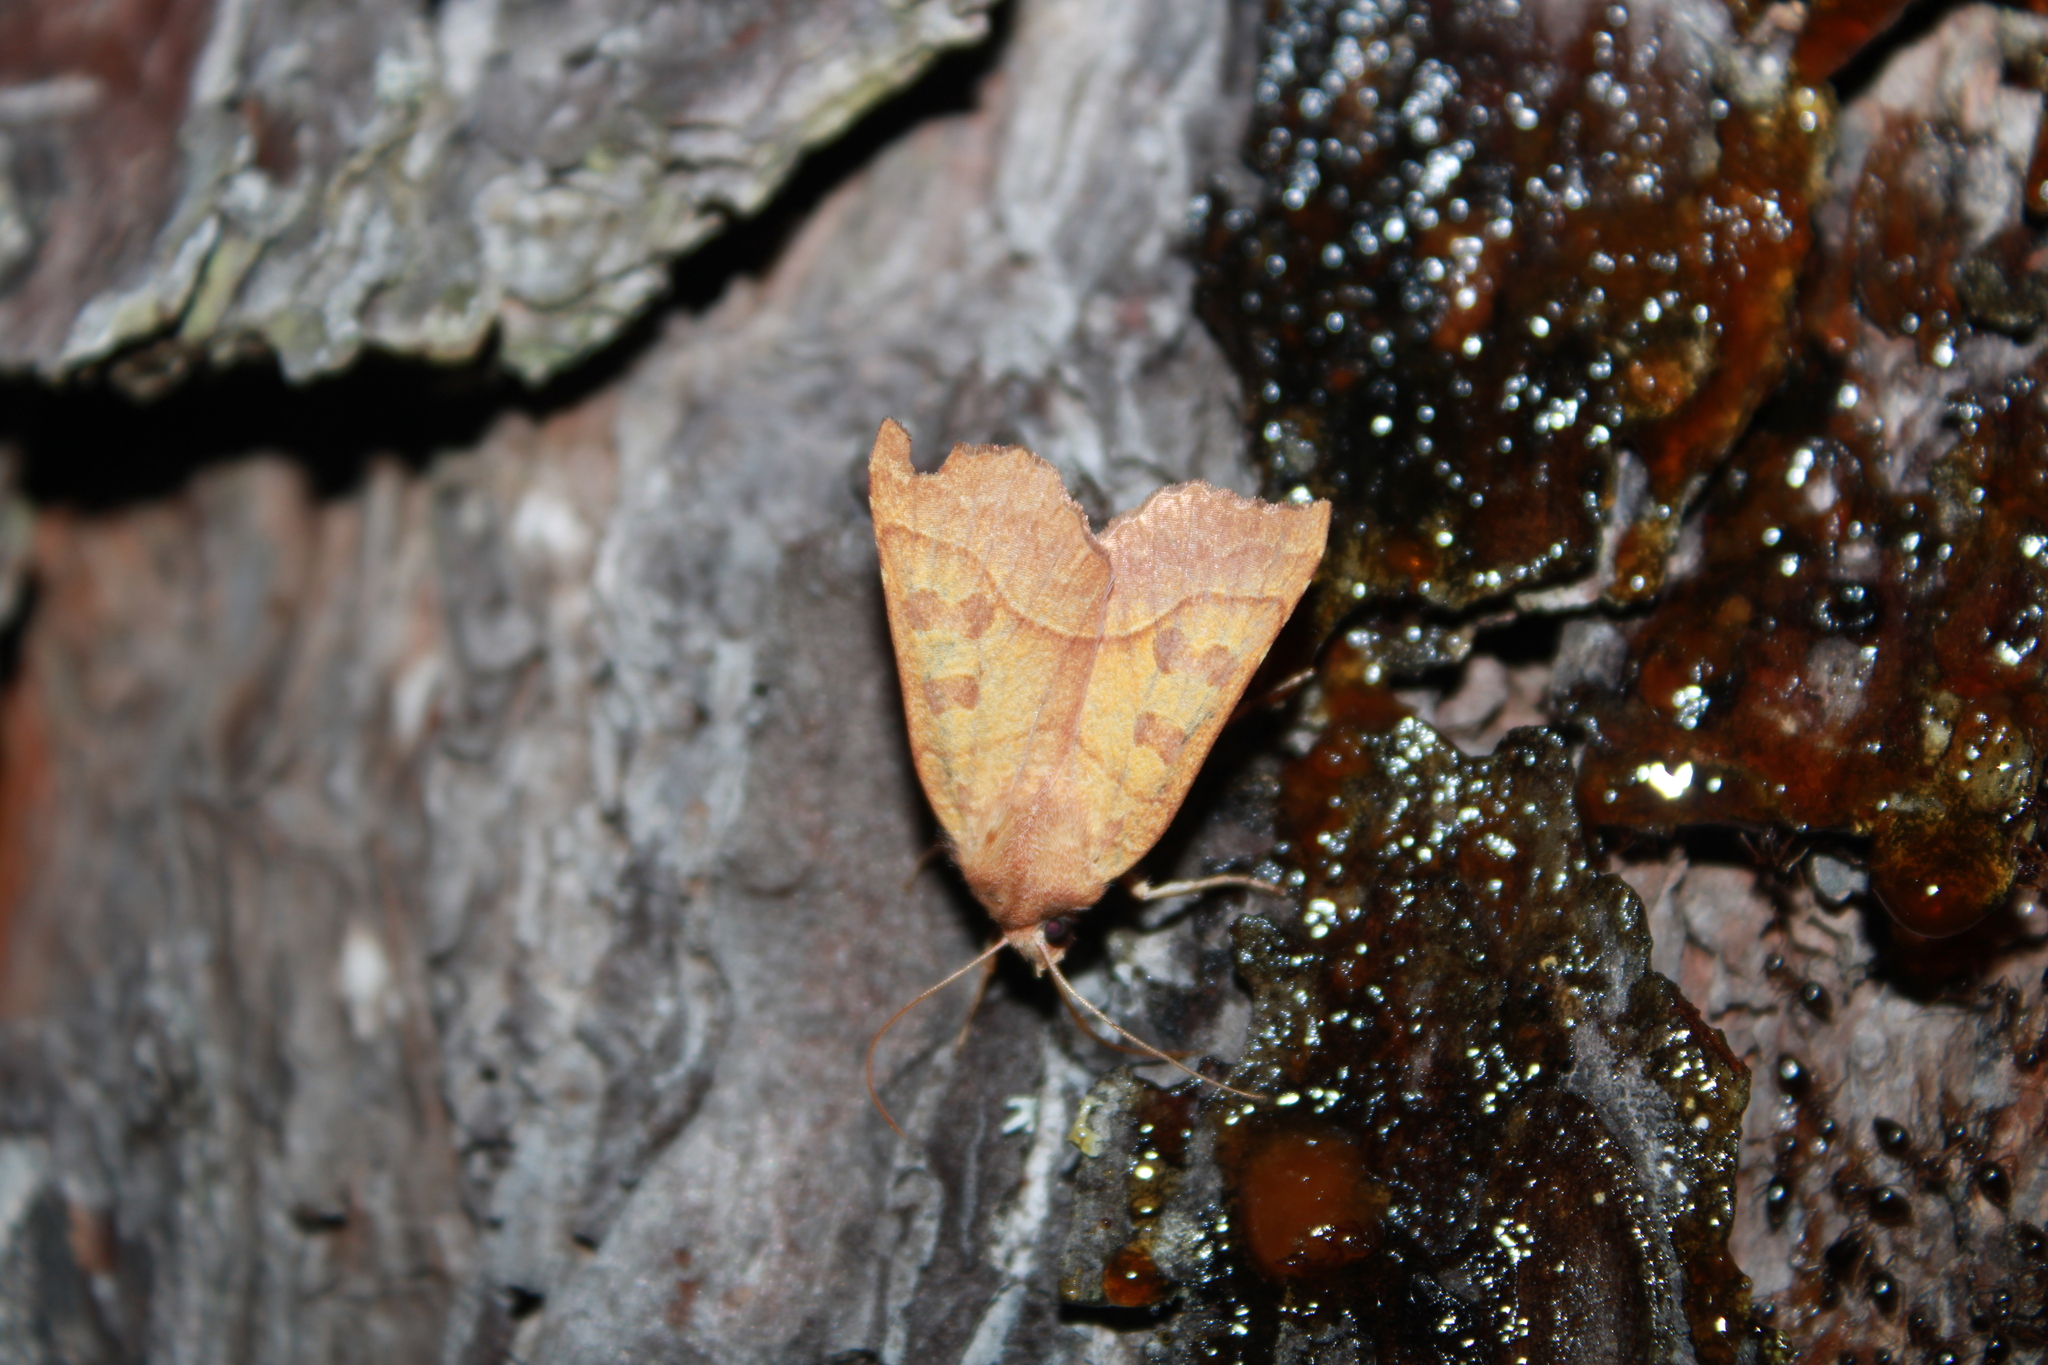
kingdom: Animalia
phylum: Arthropoda
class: Insecta
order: Lepidoptera
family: Noctuidae
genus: Eucirroedia
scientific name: Eucirroedia pampina
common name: Scalloped sallow
